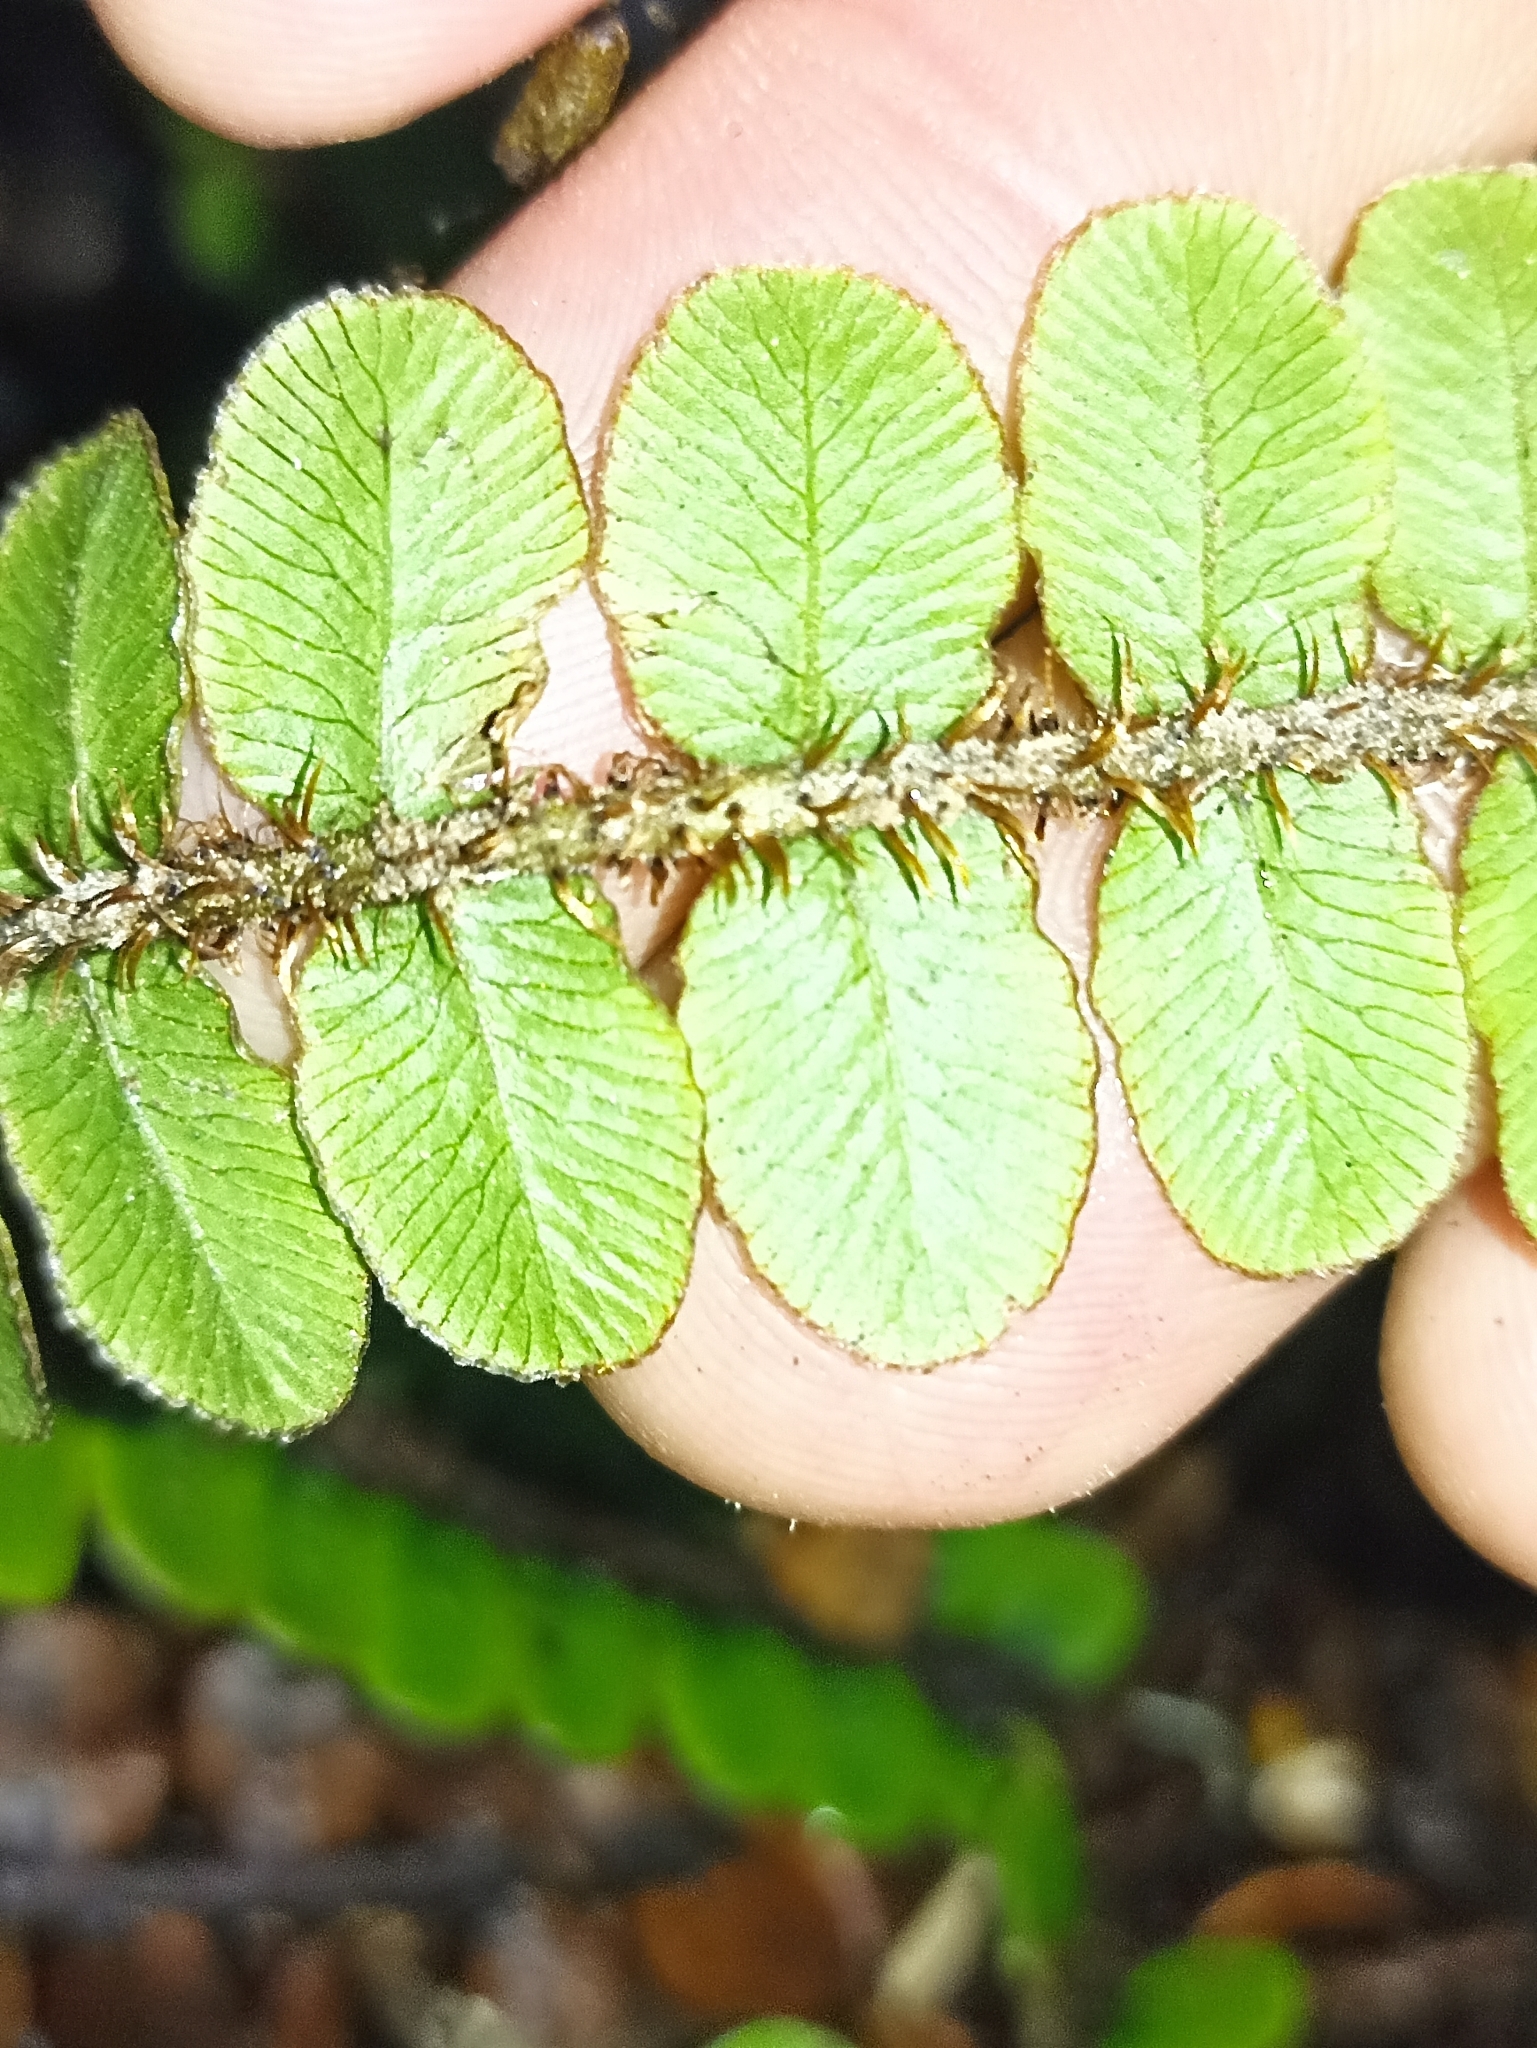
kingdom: Plantae
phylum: Tracheophyta
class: Polypodiopsida
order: Polypodiales
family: Blechnaceae
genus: Cranfillia
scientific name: Cranfillia fluviatilis
